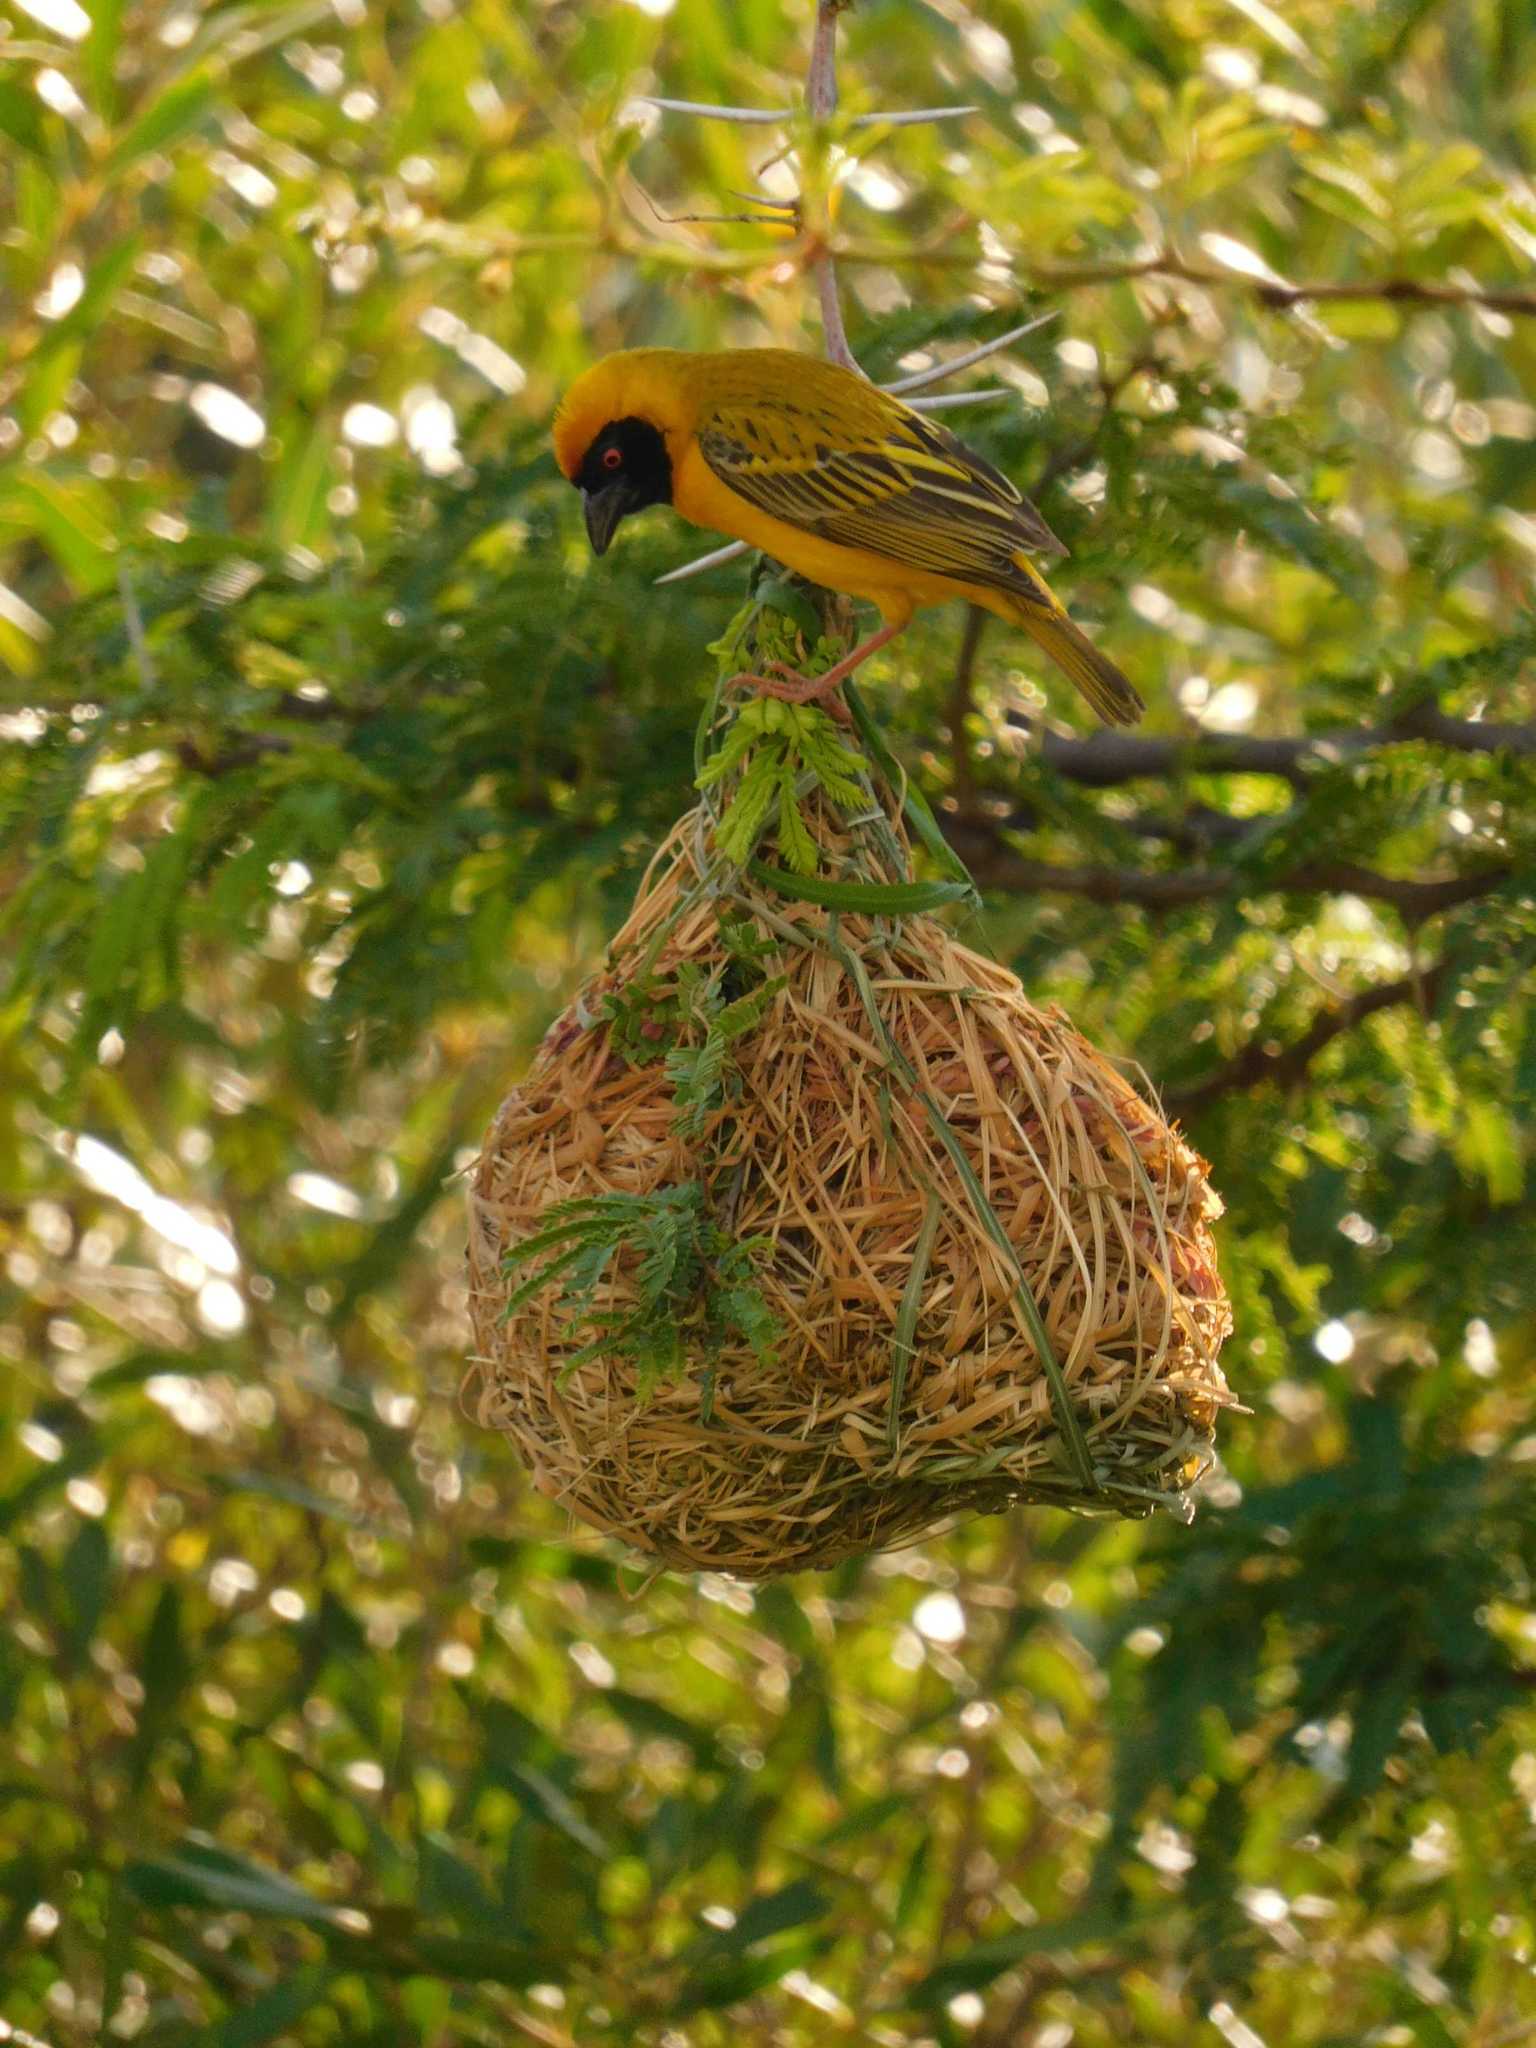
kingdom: Animalia
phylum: Chordata
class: Aves
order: Passeriformes
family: Ploceidae
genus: Ploceus
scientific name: Ploceus velatus
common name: Southern masked weaver
